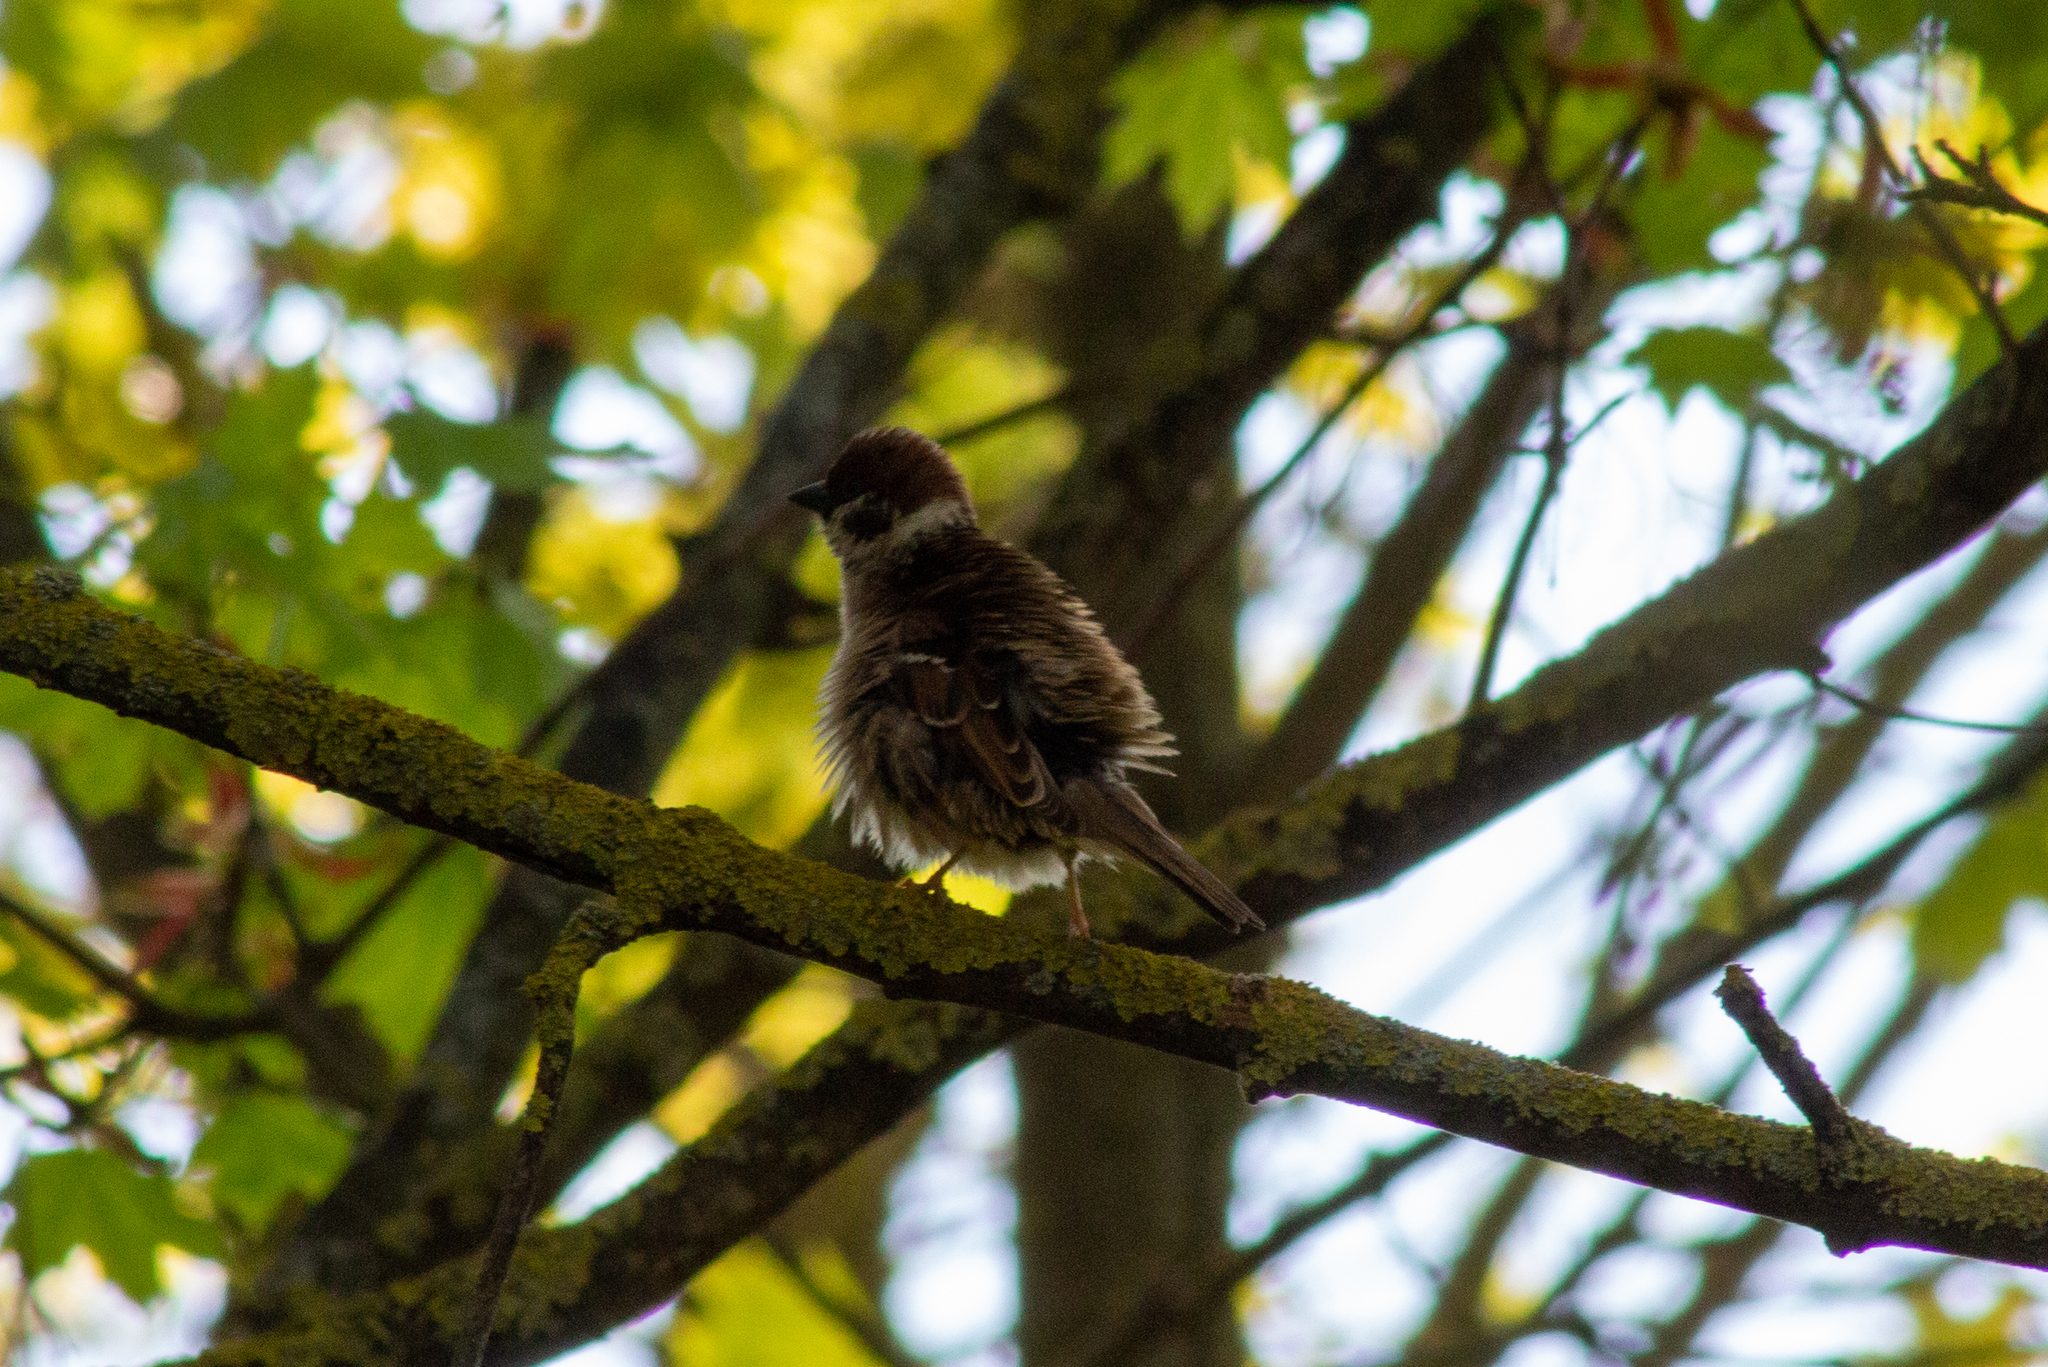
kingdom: Animalia
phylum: Chordata
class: Aves
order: Passeriformes
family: Passeridae
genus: Passer
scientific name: Passer montanus
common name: Eurasian tree sparrow
